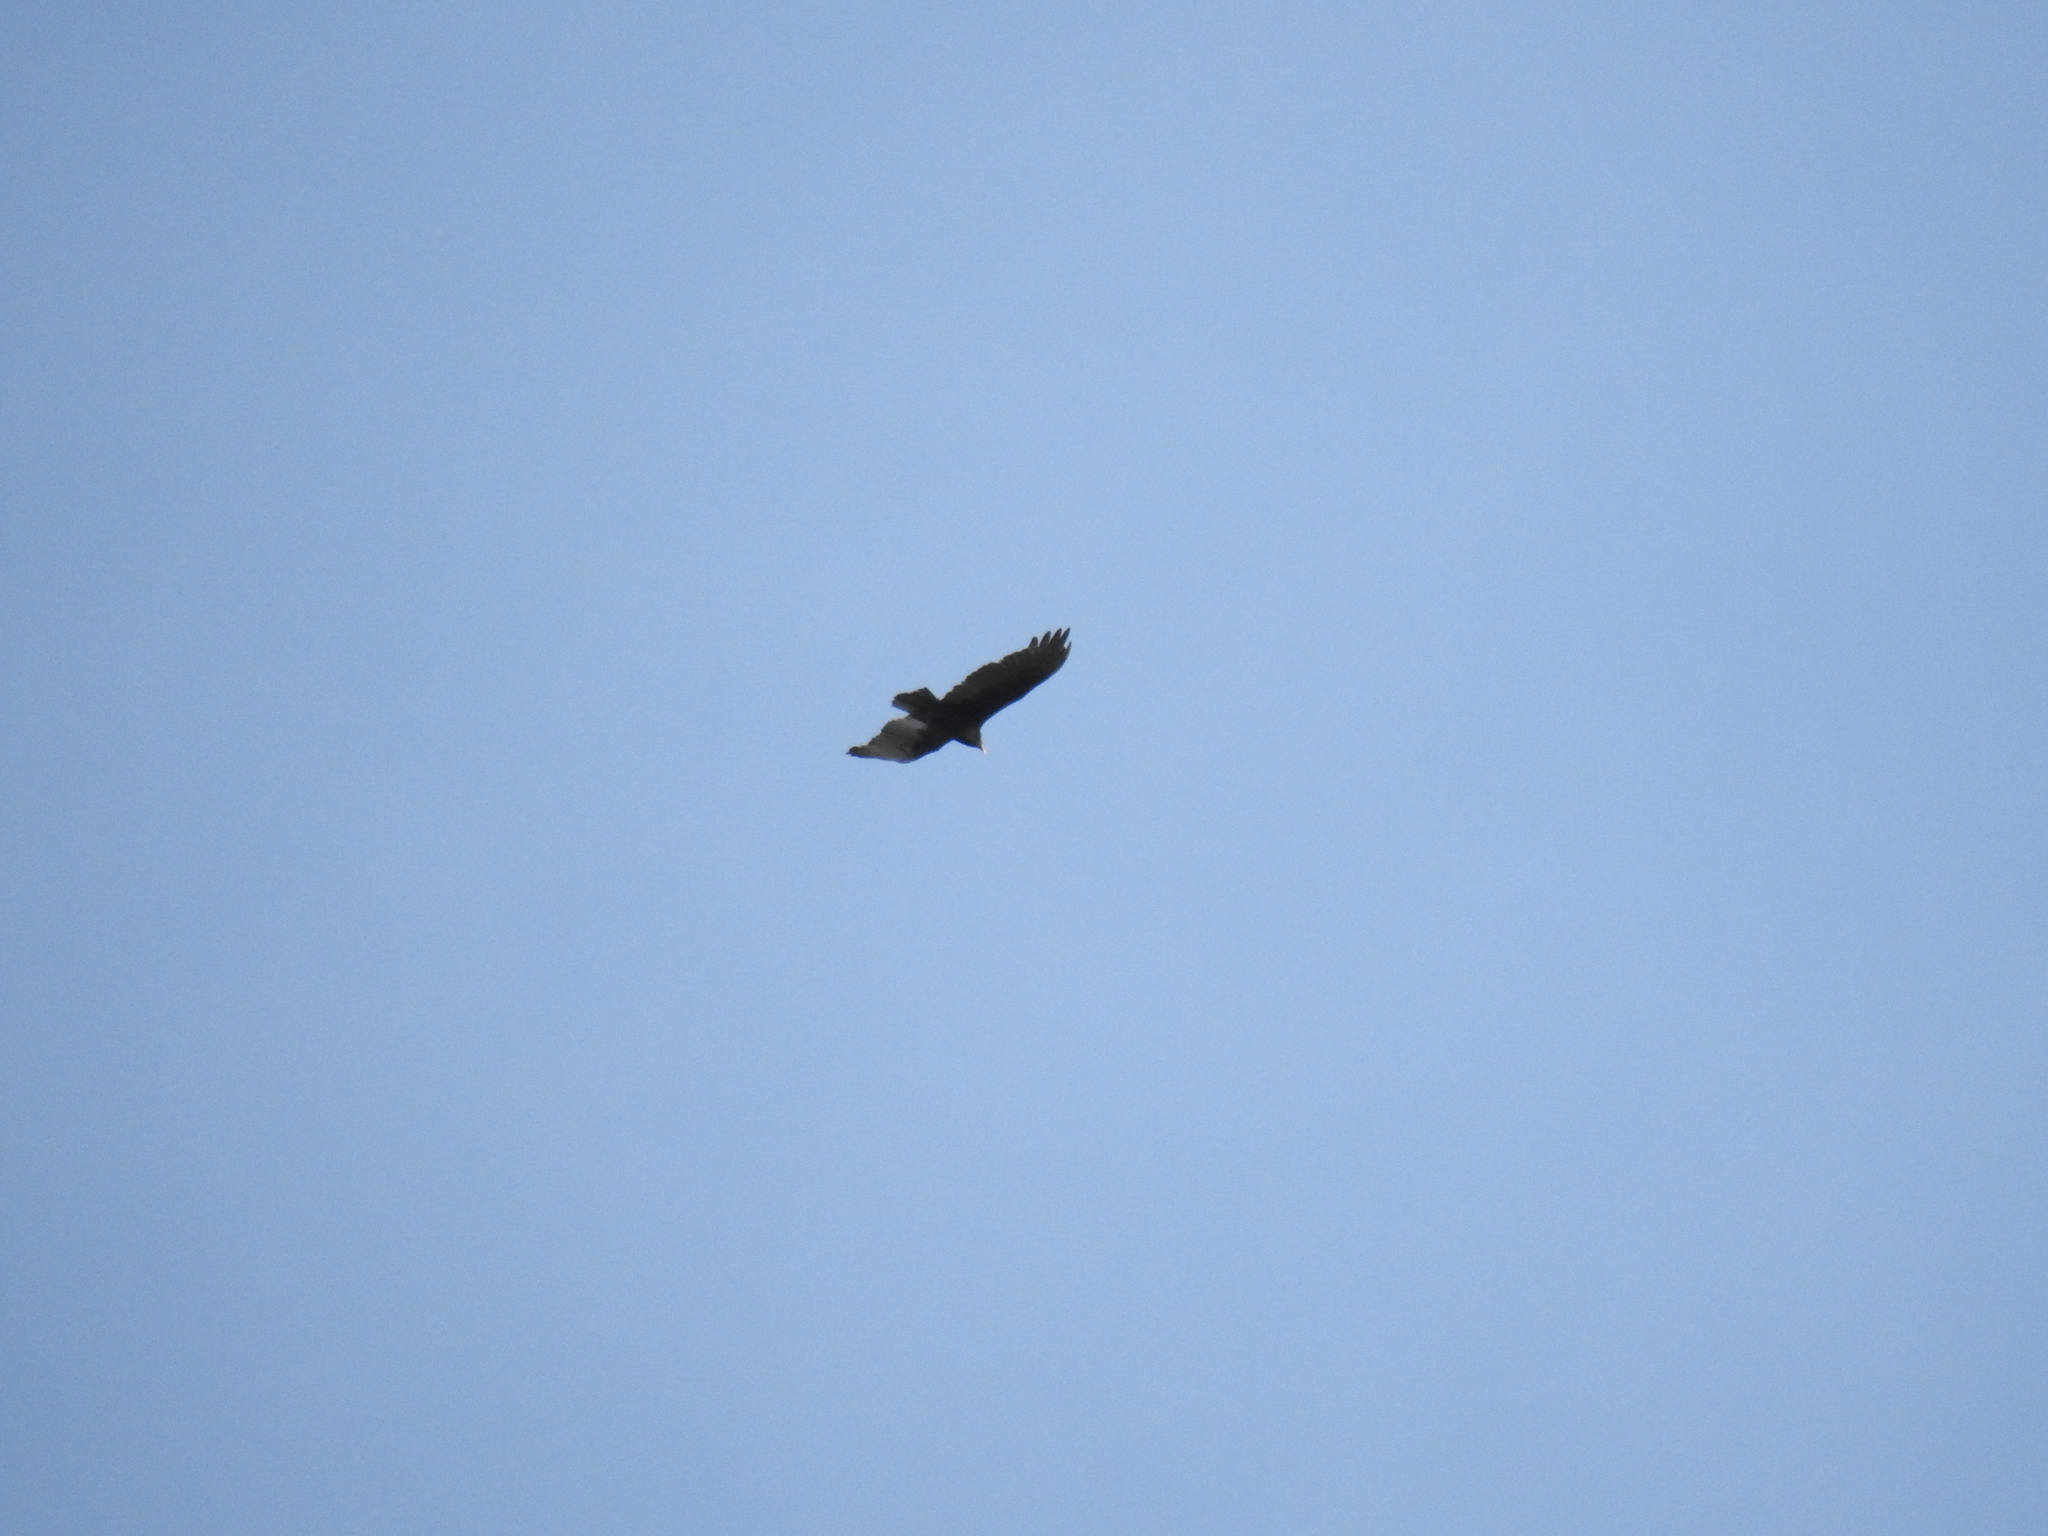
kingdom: Animalia
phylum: Chordata
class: Aves
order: Accipitriformes
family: Cathartidae
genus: Cathartes
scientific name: Cathartes aura
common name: Turkey vulture
